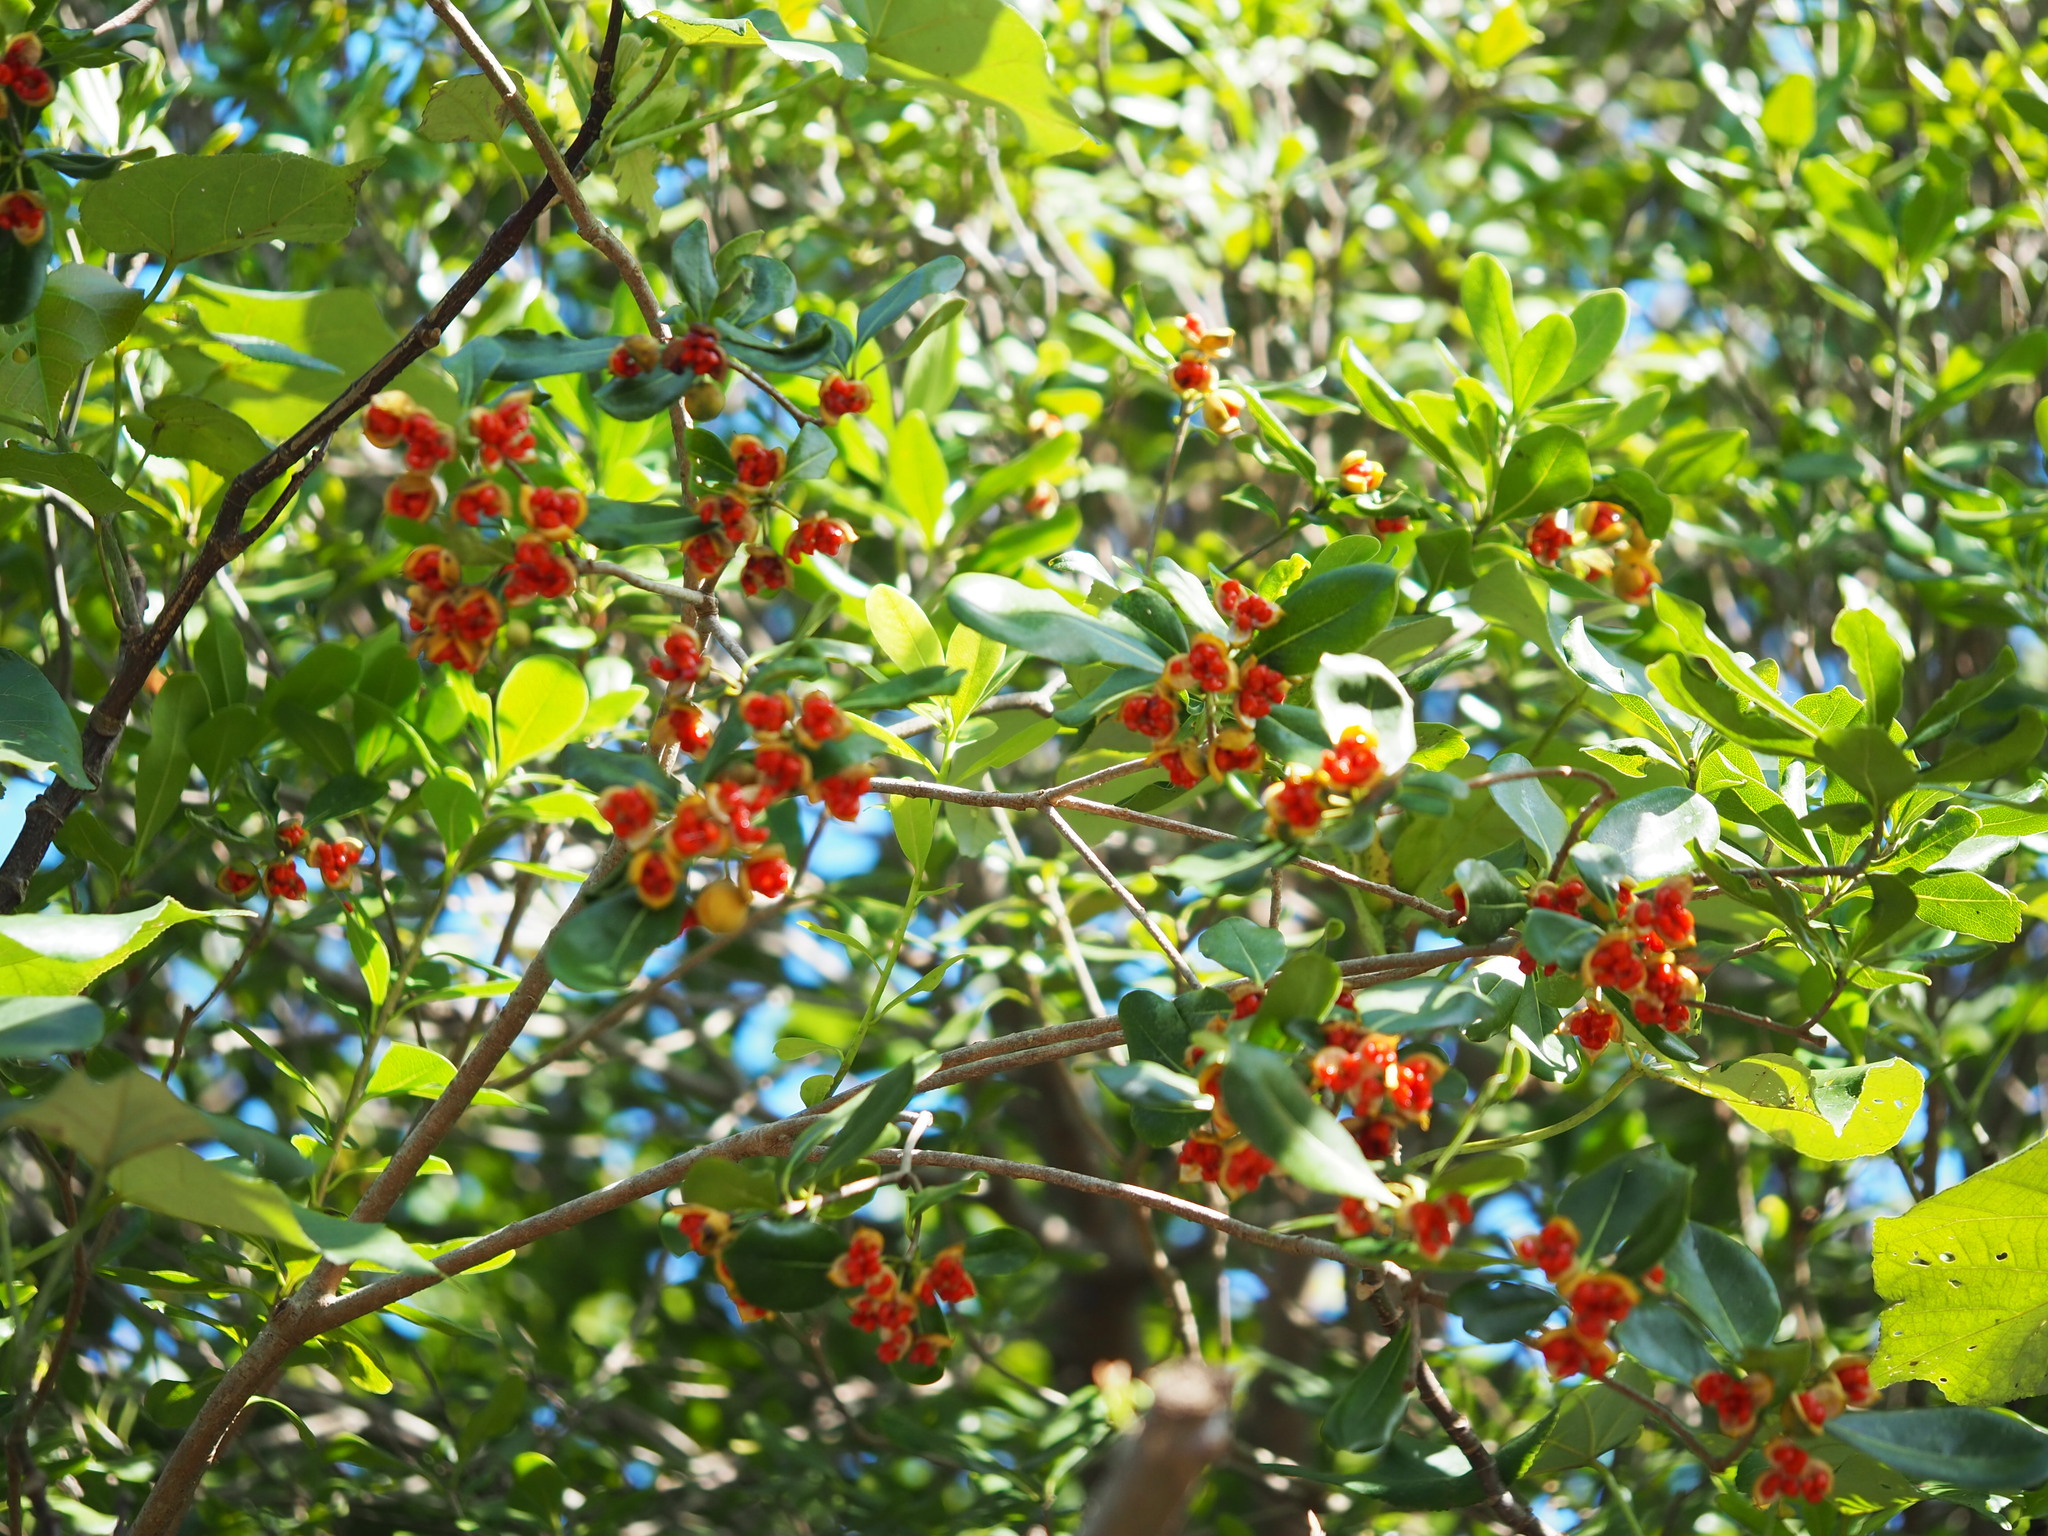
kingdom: Plantae
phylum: Tracheophyta
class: Magnoliopsida
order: Apiales
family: Pittosporaceae
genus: Pittosporum
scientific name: Pittosporum tobira
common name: Japanese cheesewood
